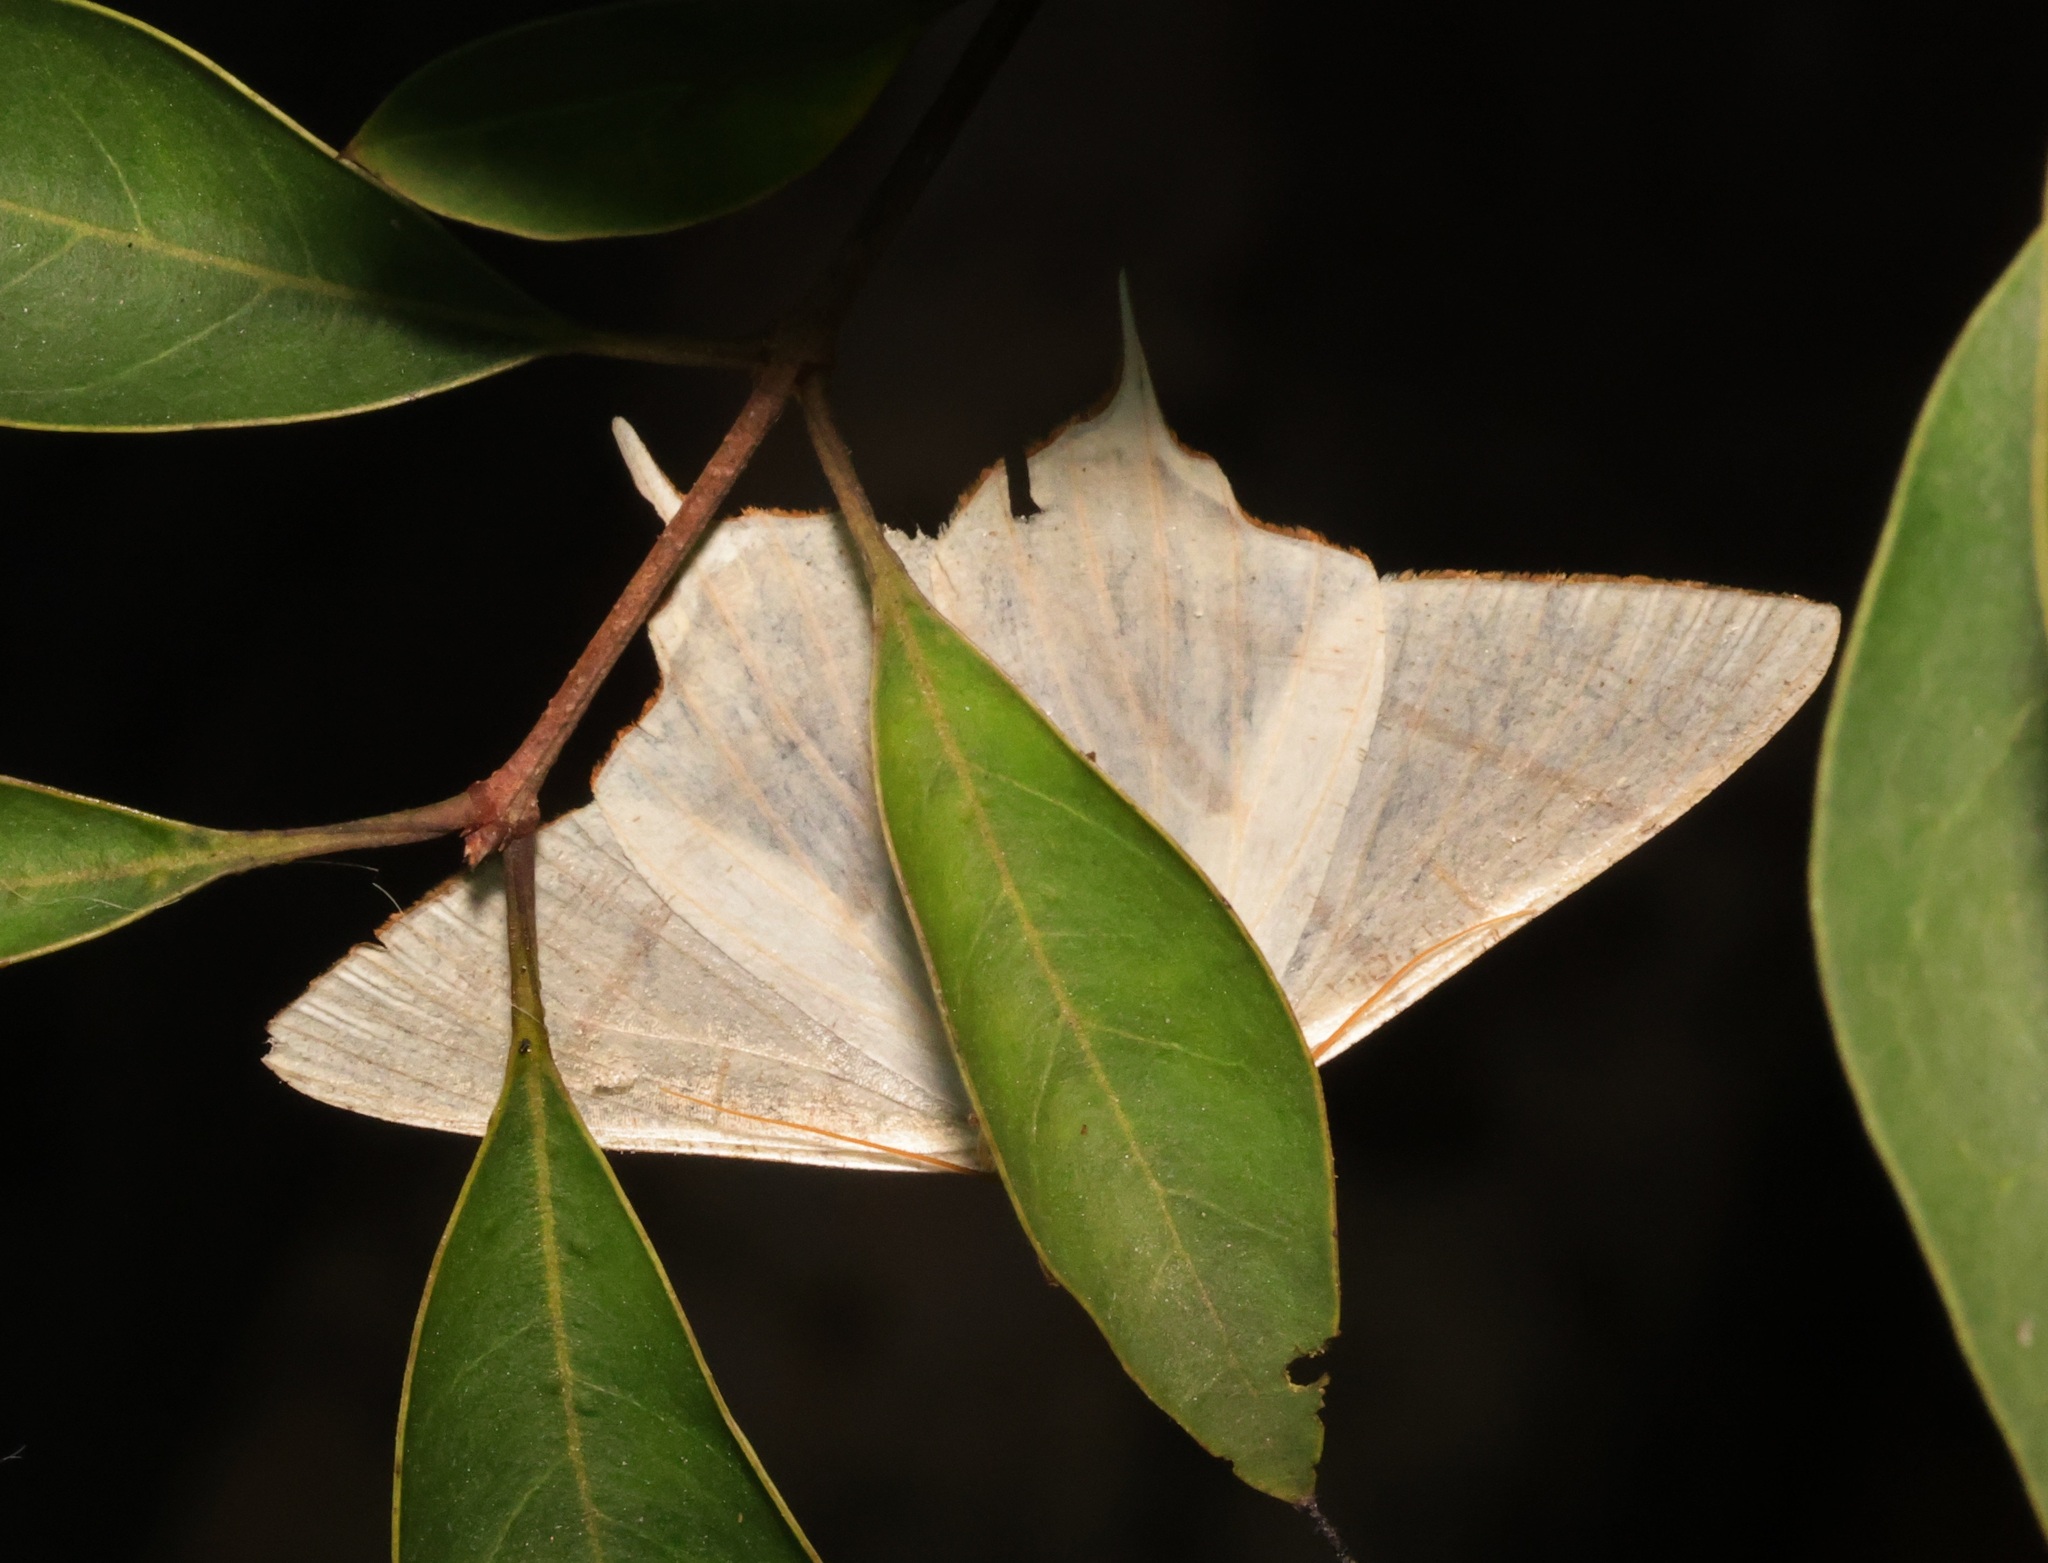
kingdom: Animalia
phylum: Arthropoda
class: Insecta
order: Lepidoptera
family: Geometridae
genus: Ourapteryx
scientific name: Ourapteryx clara
